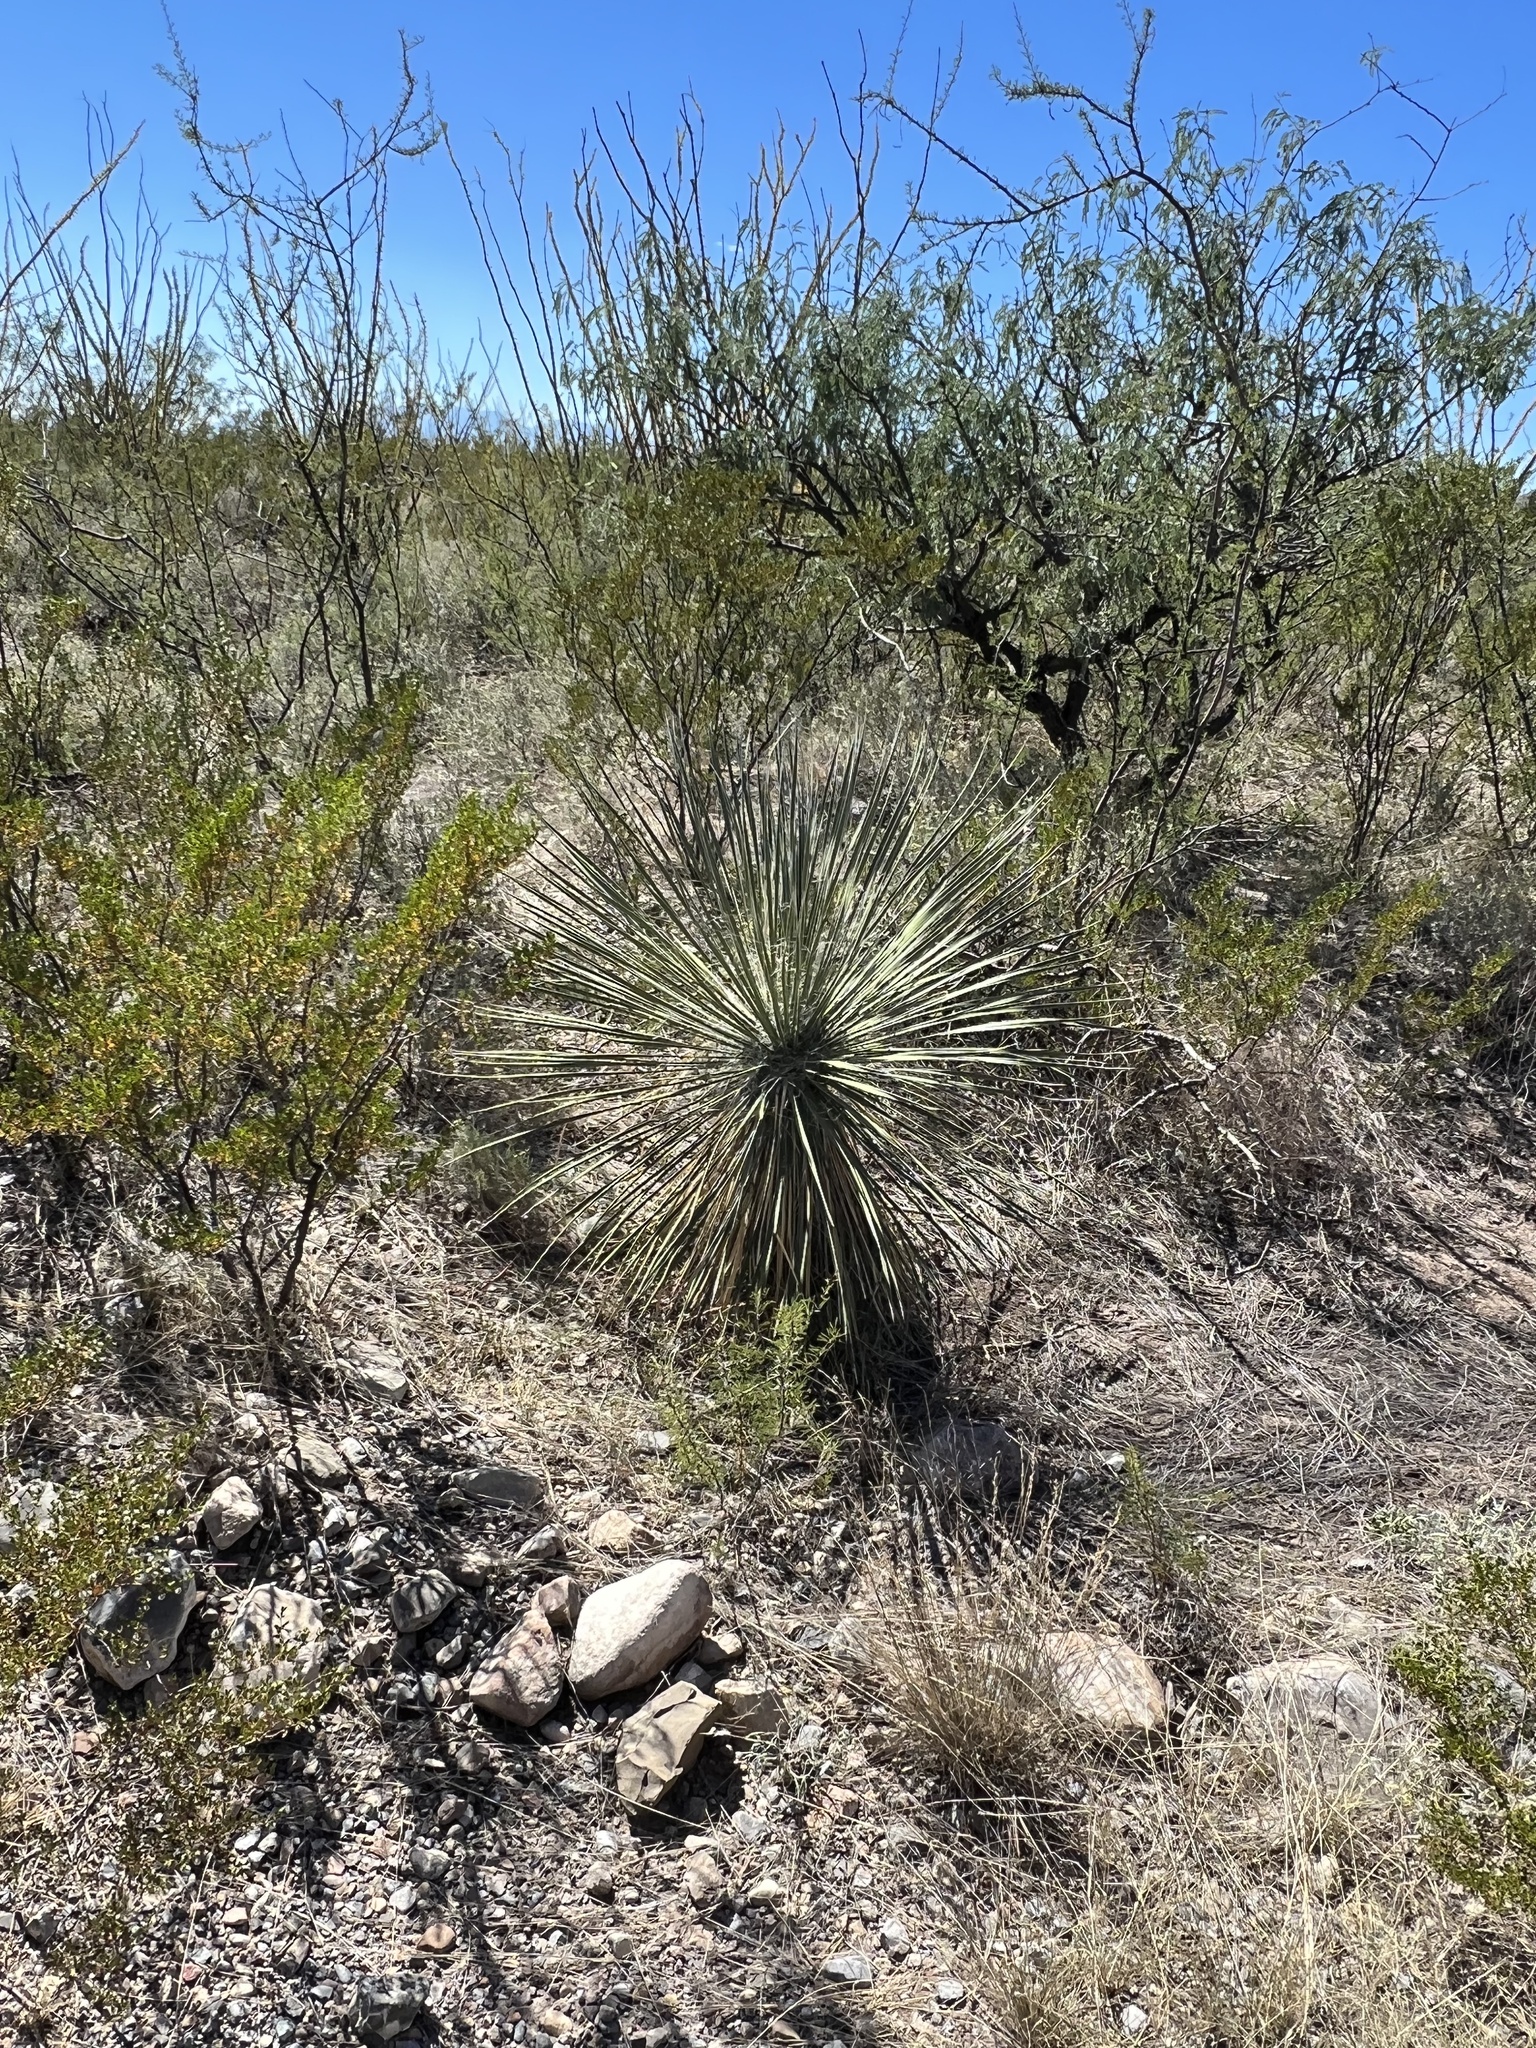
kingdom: Plantae
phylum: Tracheophyta
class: Liliopsida
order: Asparagales
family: Asparagaceae
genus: Yucca
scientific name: Yucca elata
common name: Palmella
